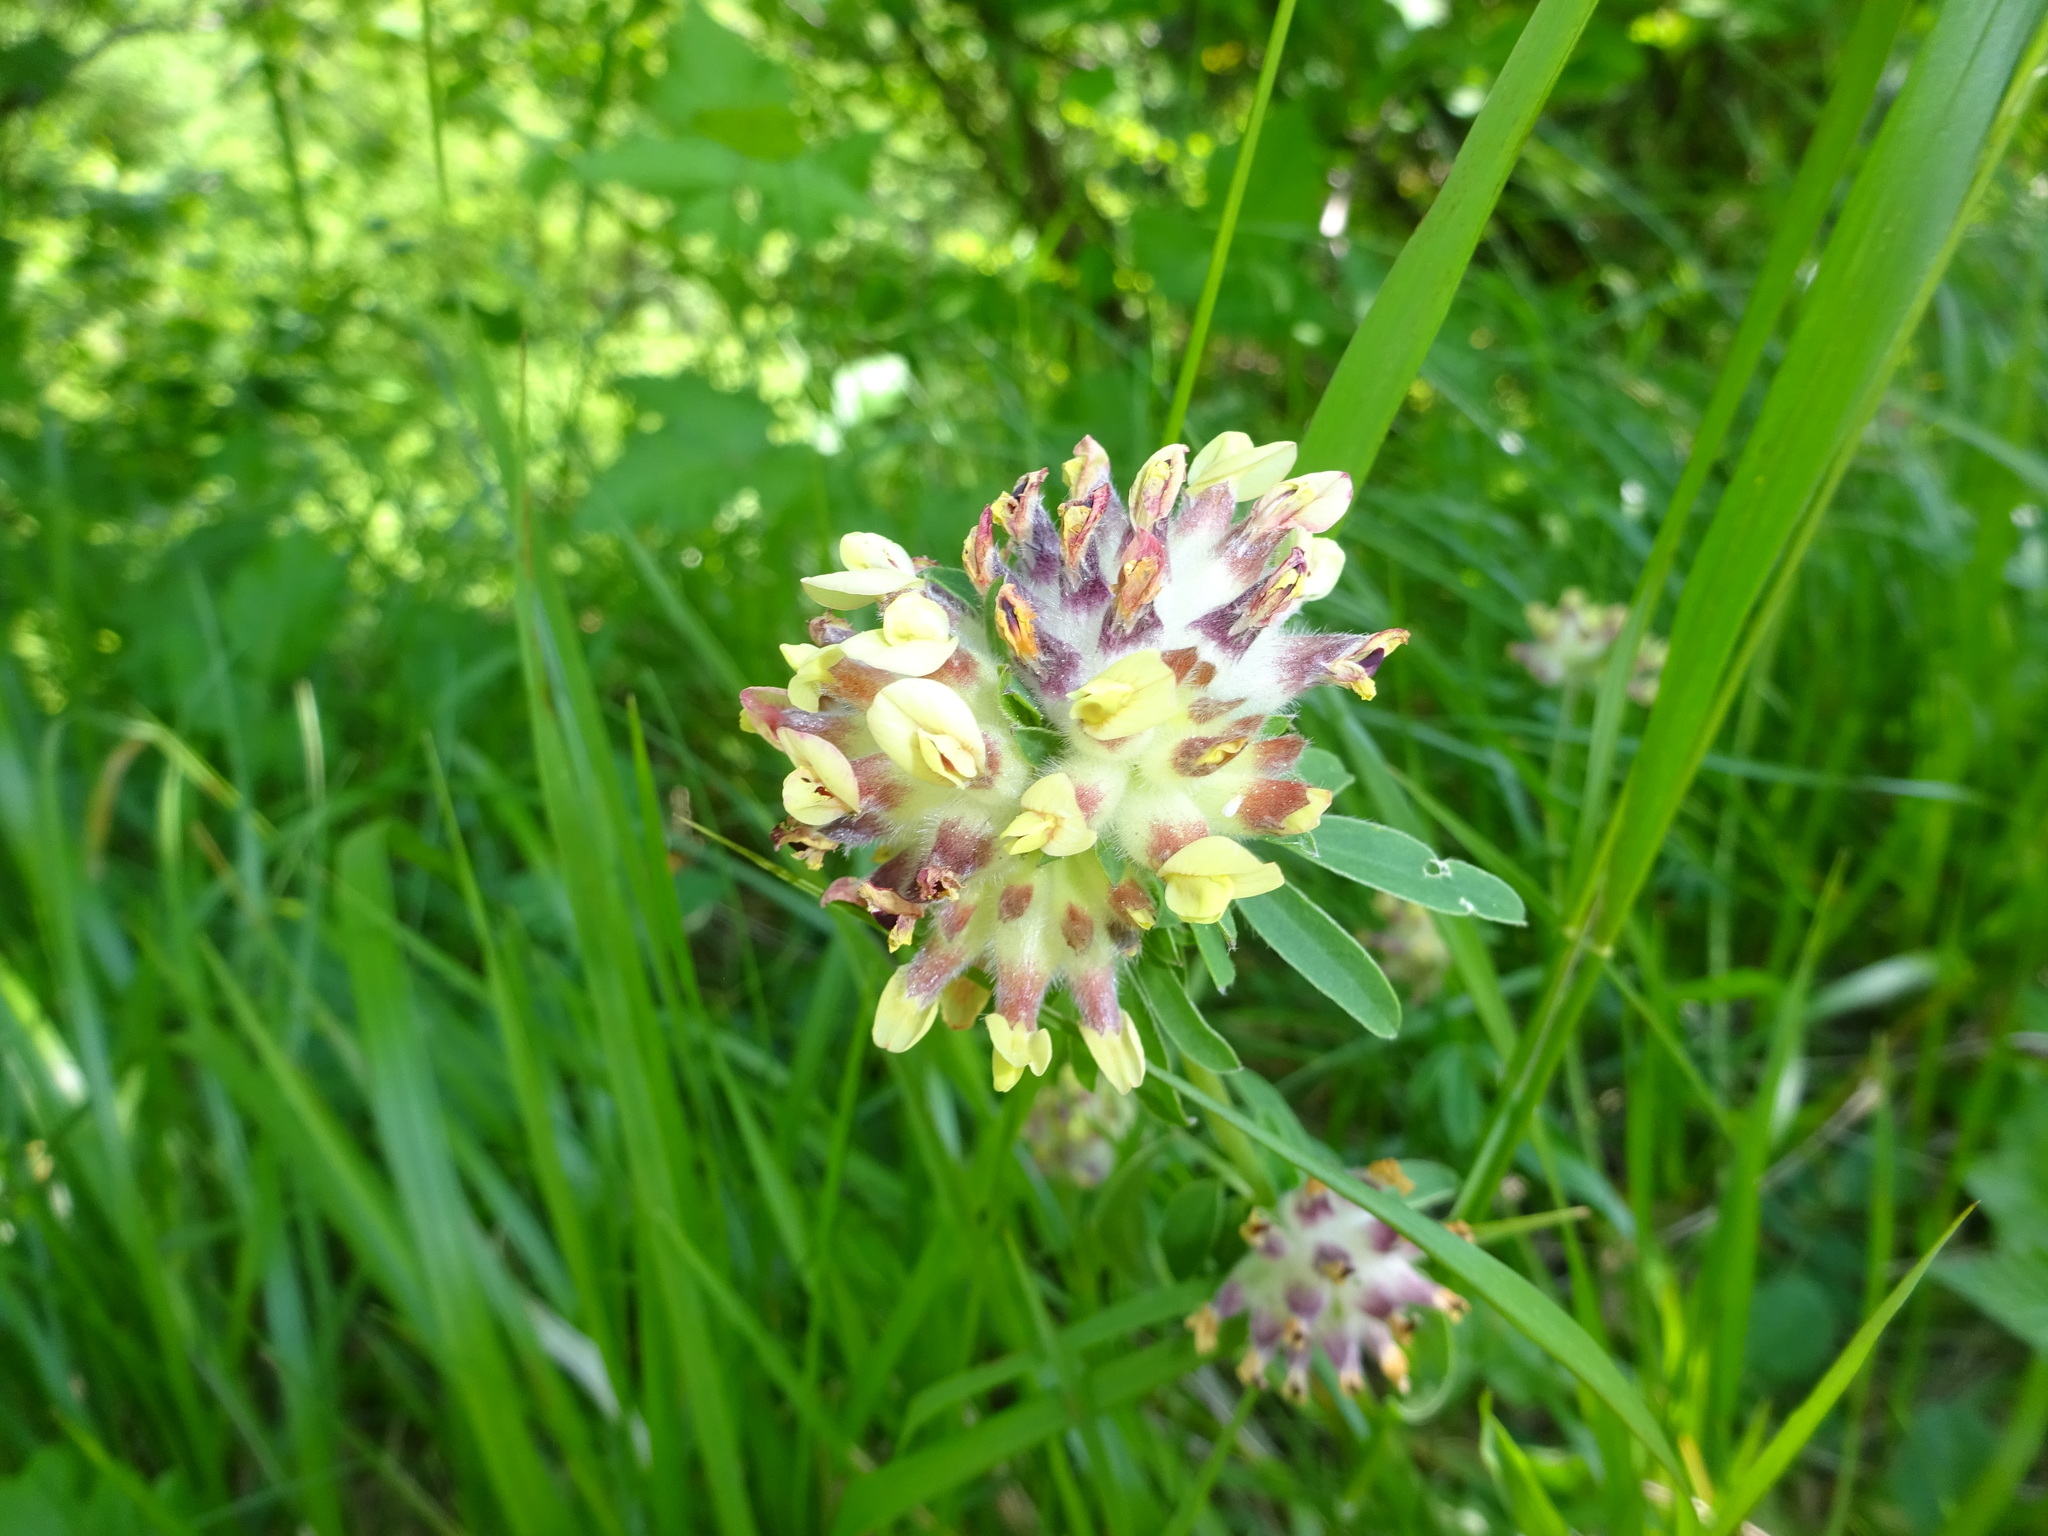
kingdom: Plantae
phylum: Tracheophyta
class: Magnoliopsida
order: Fabales
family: Fabaceae
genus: Anthyllis
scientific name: Anthyllis vulneraria
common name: Kidney vetch
